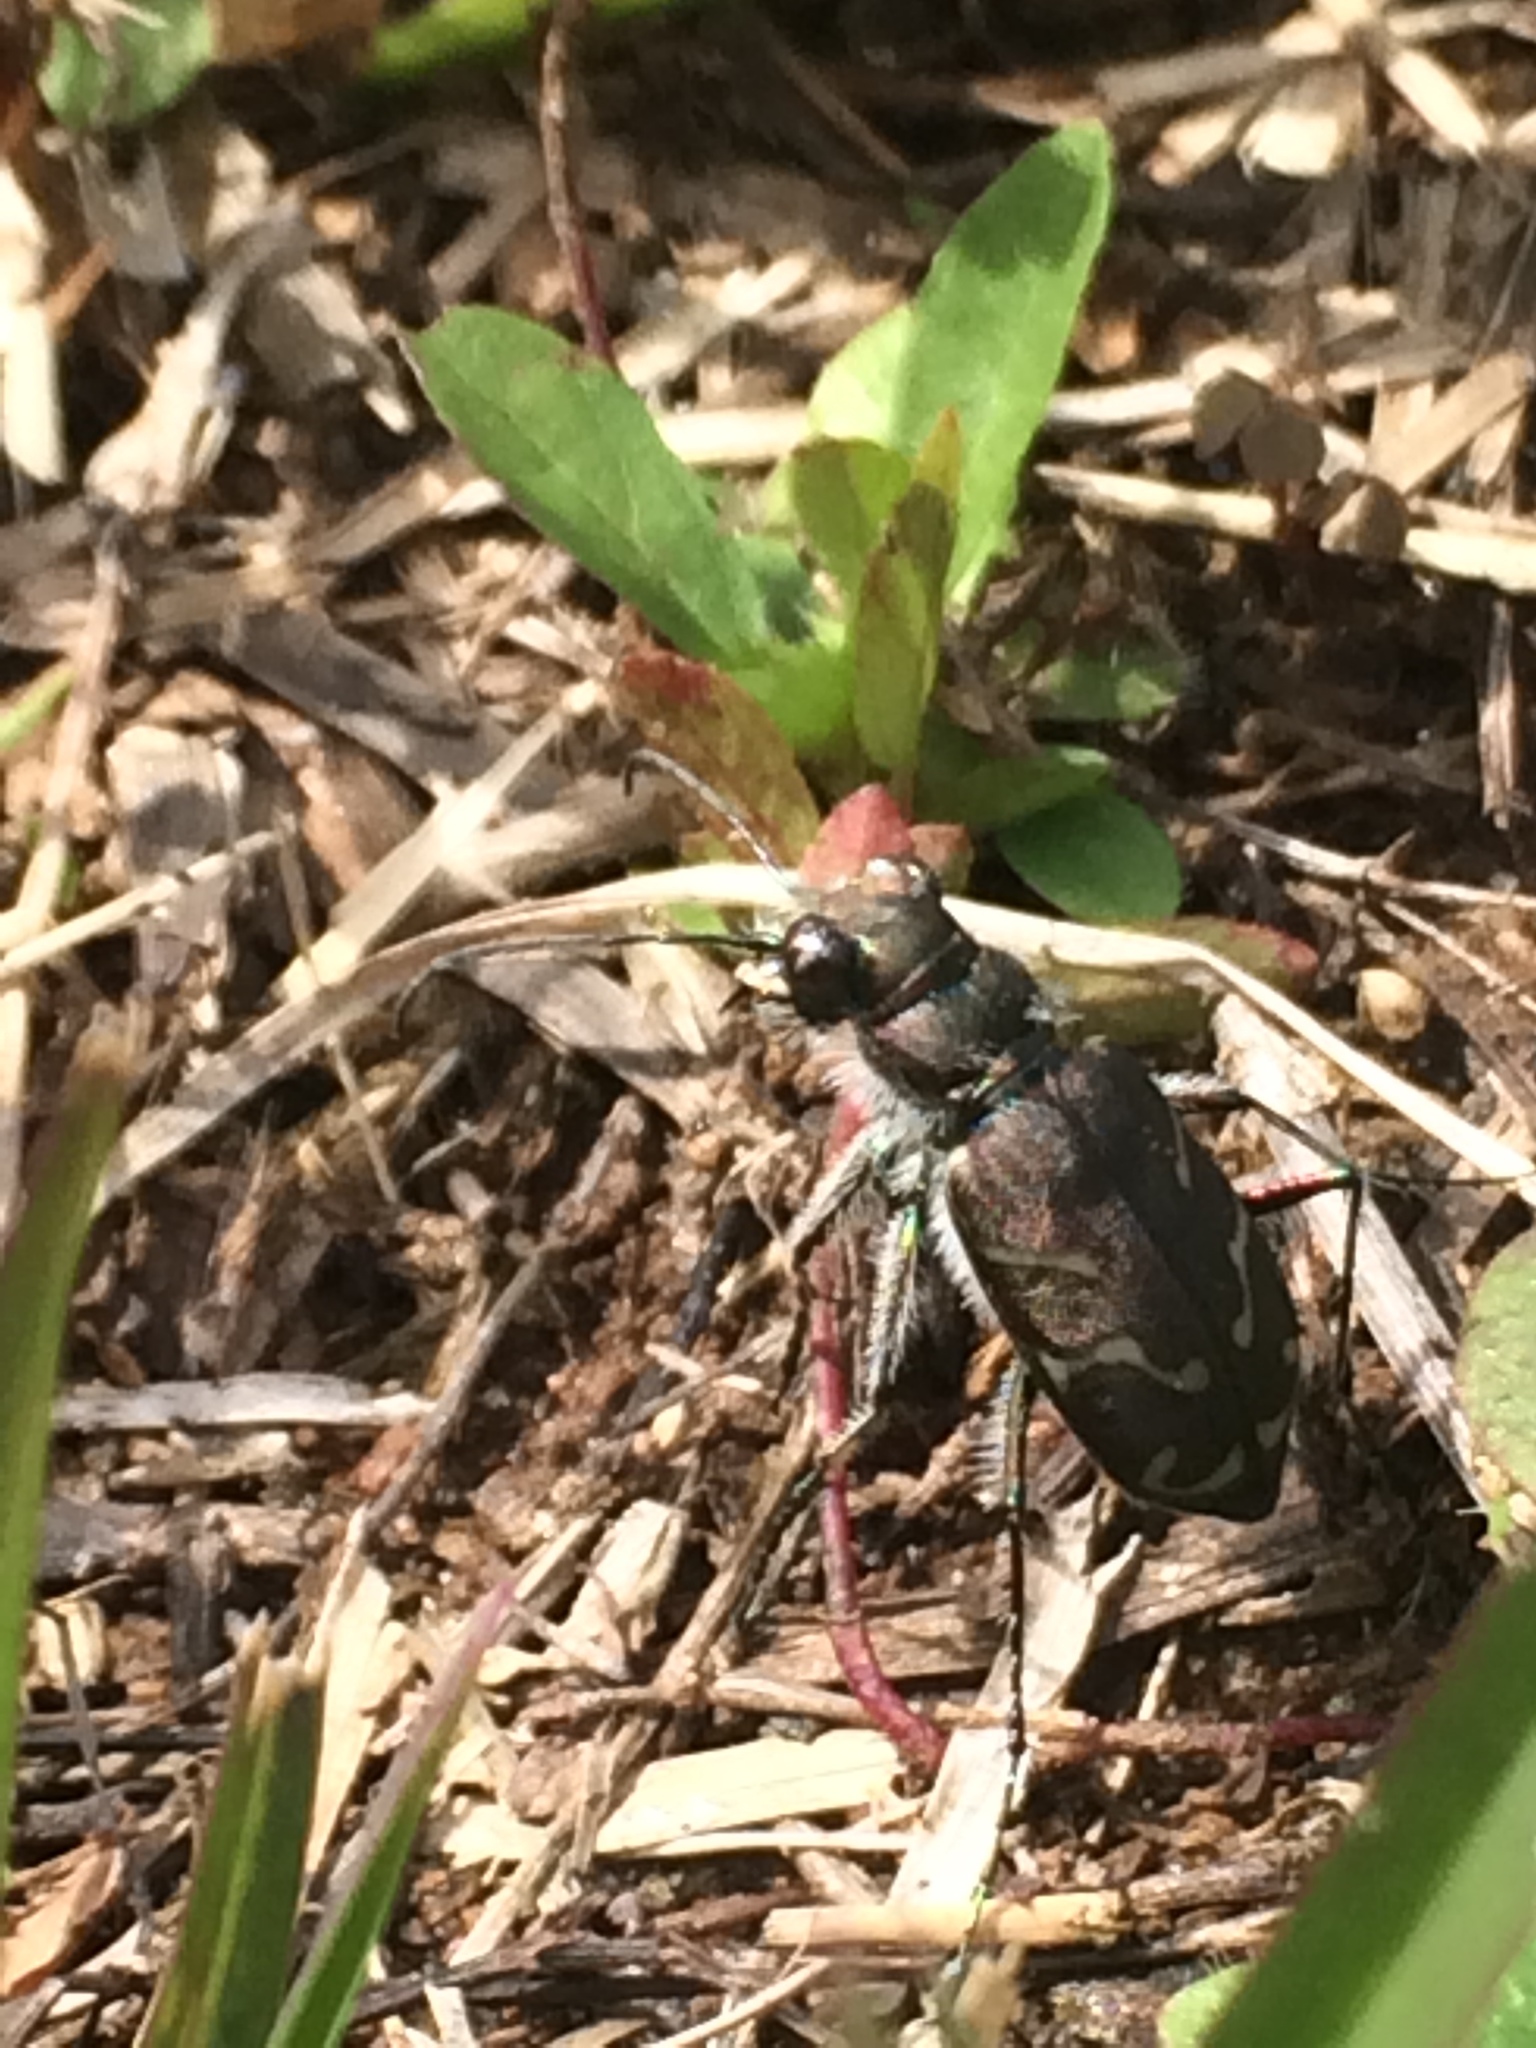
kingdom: Animalia
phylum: Arthropoda
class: Insecta
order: Coleoptera
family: Carabidae
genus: Cicindela
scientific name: Cicindela tranquebarica
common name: Oblique-lined tiger beetle
